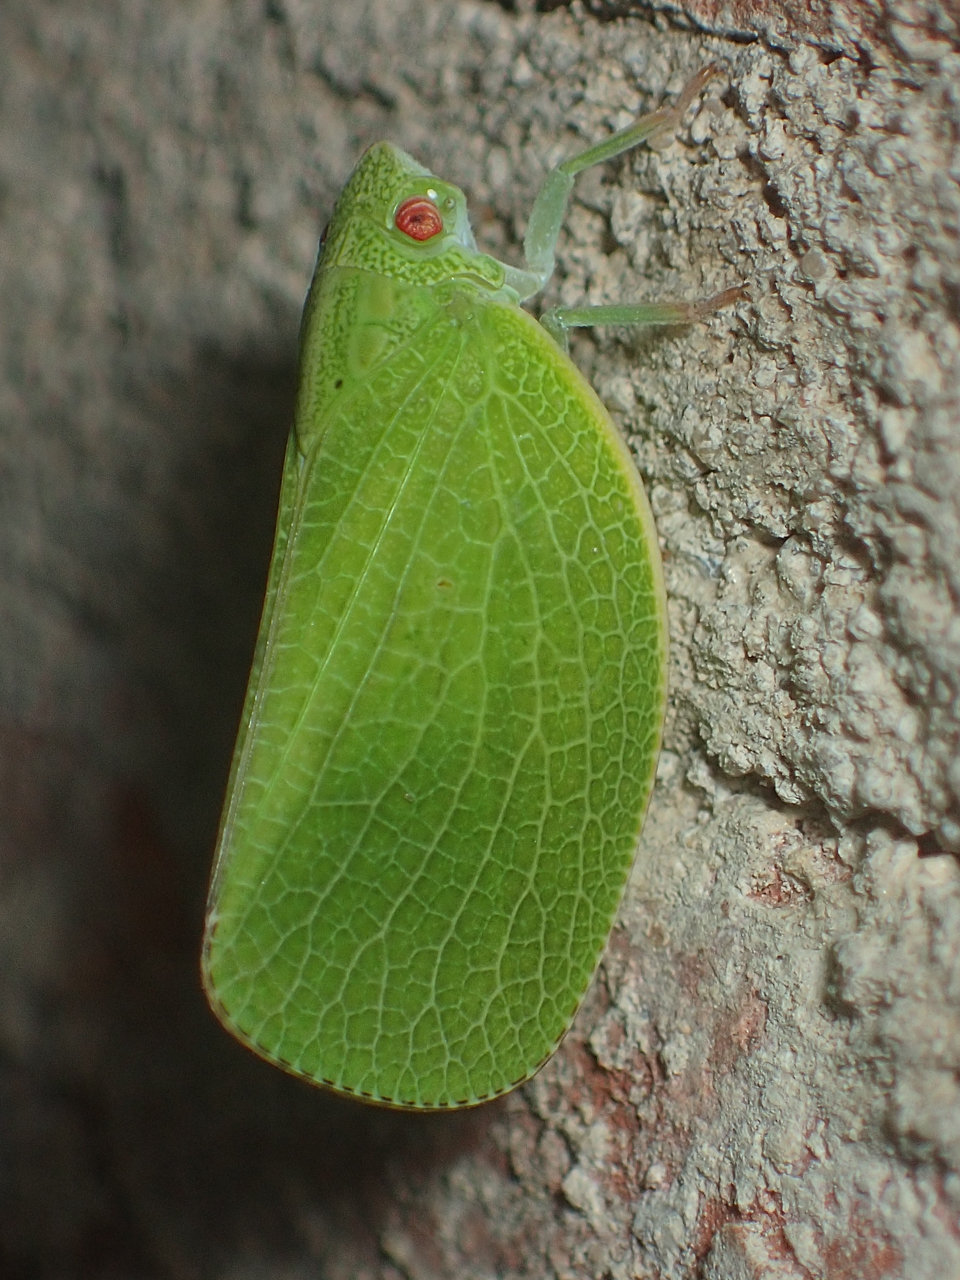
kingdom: Animalia
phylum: Arthropoda
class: Insecta
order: Hemiptera
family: Acanaloniidae
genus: Acanalonia
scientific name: Acanalonia conica
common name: Green cone-headed planthopper
